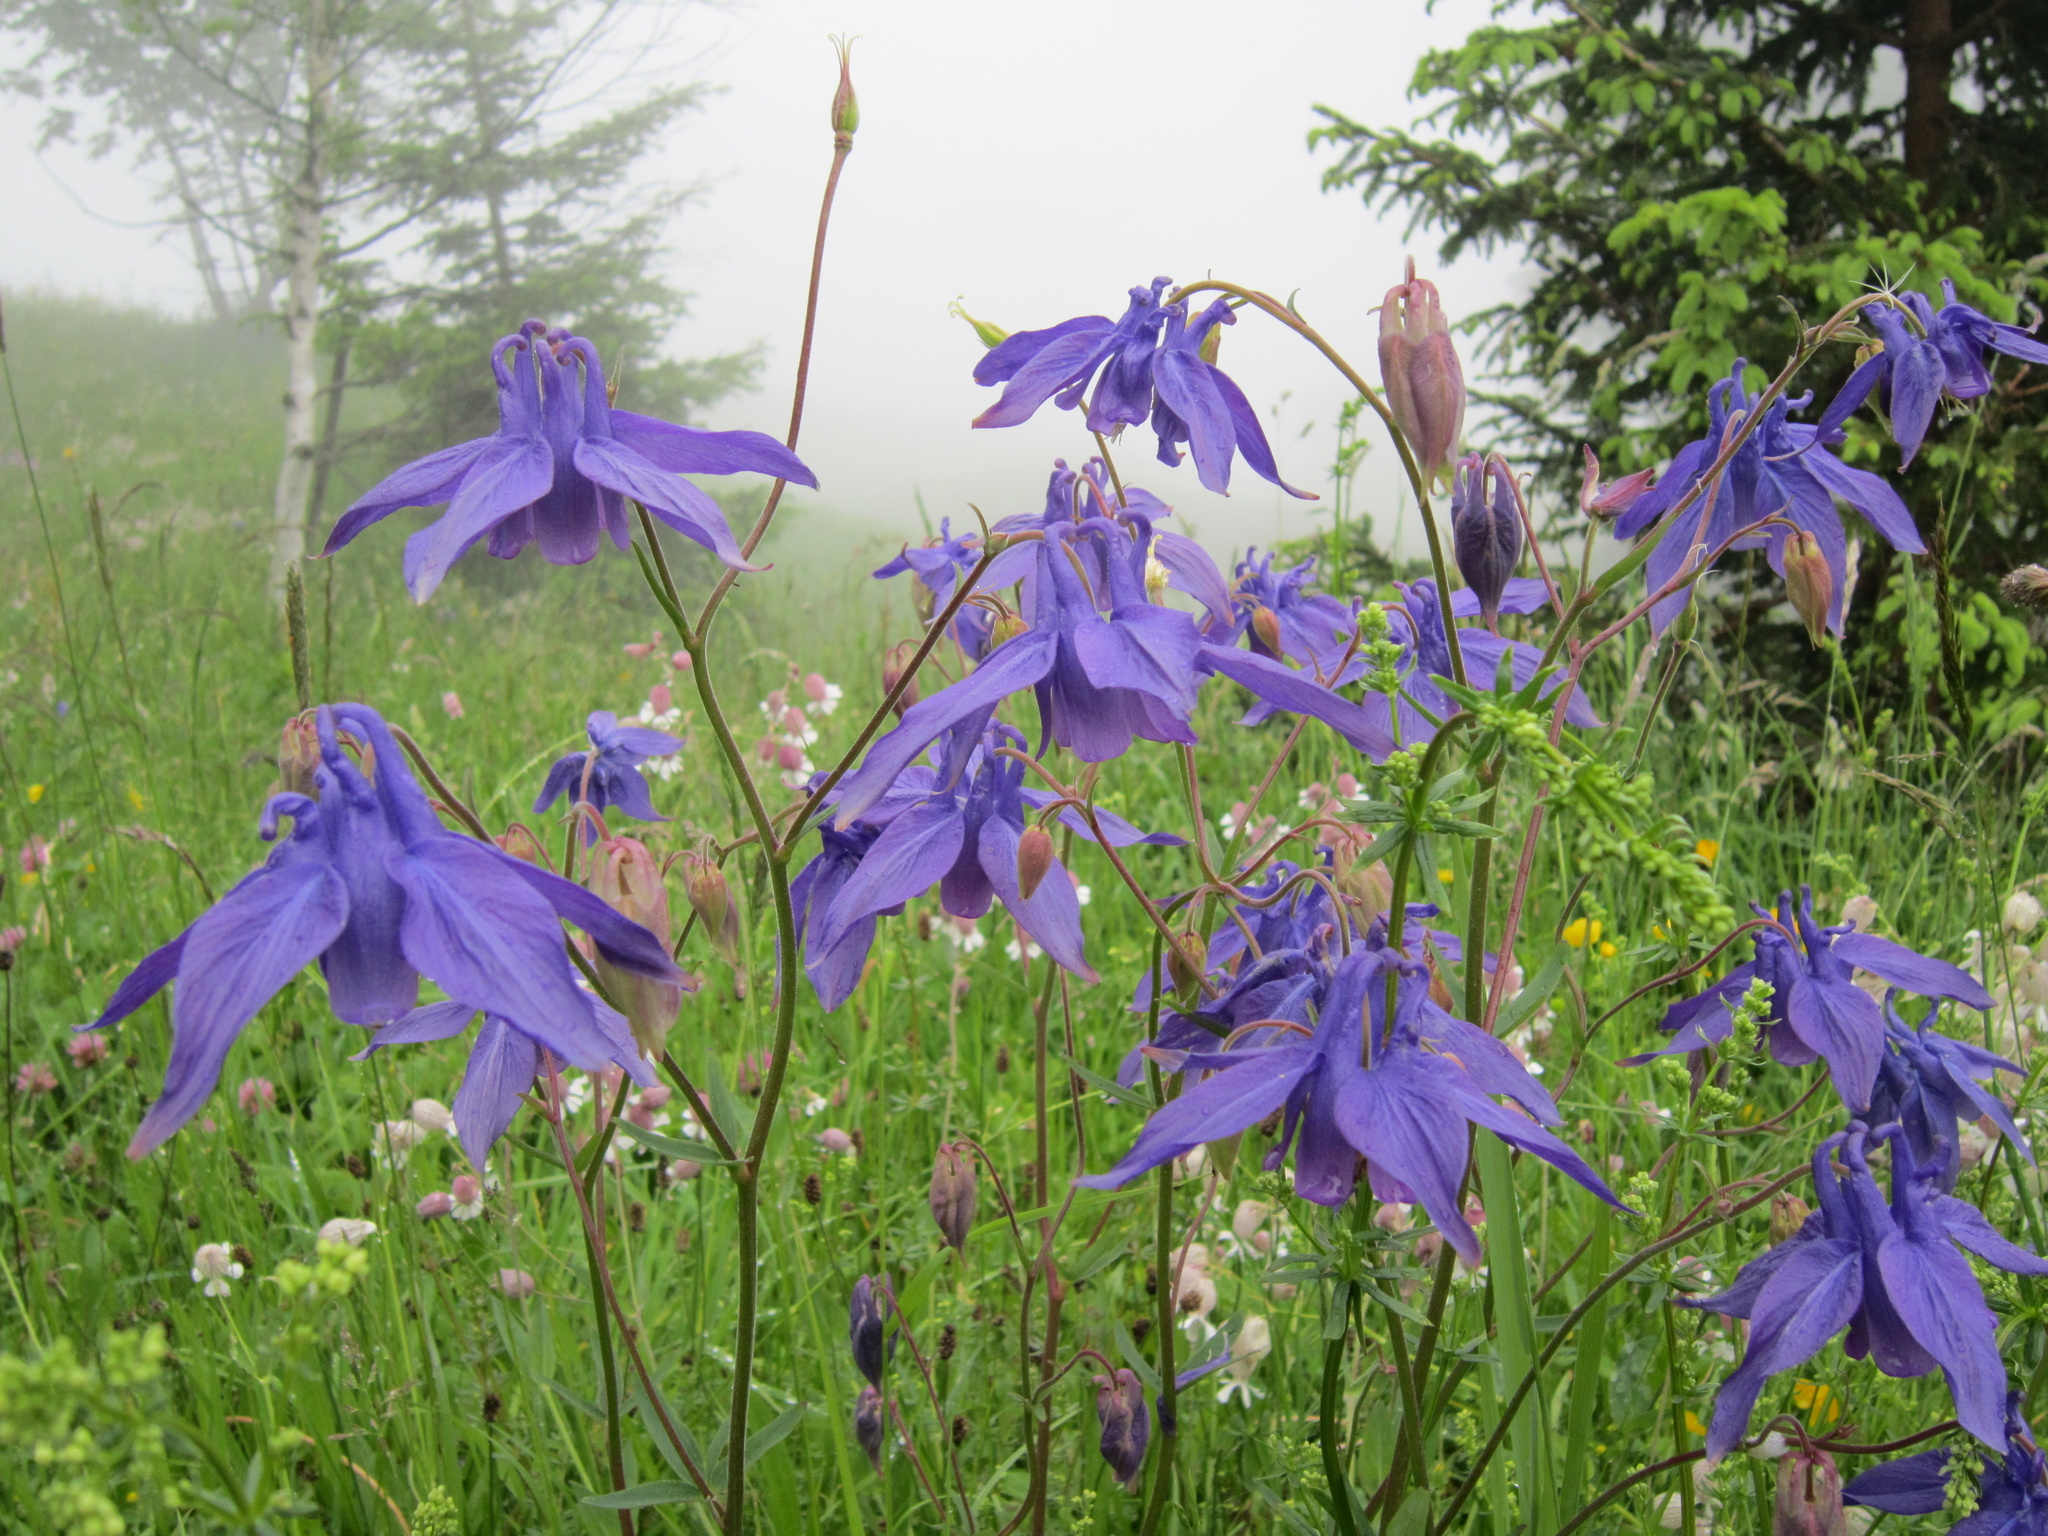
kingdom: Plantae
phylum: Tracheophyta
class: Magnoliopsida
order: Ranunculales
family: Ranunculaceae
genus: Aquilegia
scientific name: Aquilegia vulgaris
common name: Columbine
